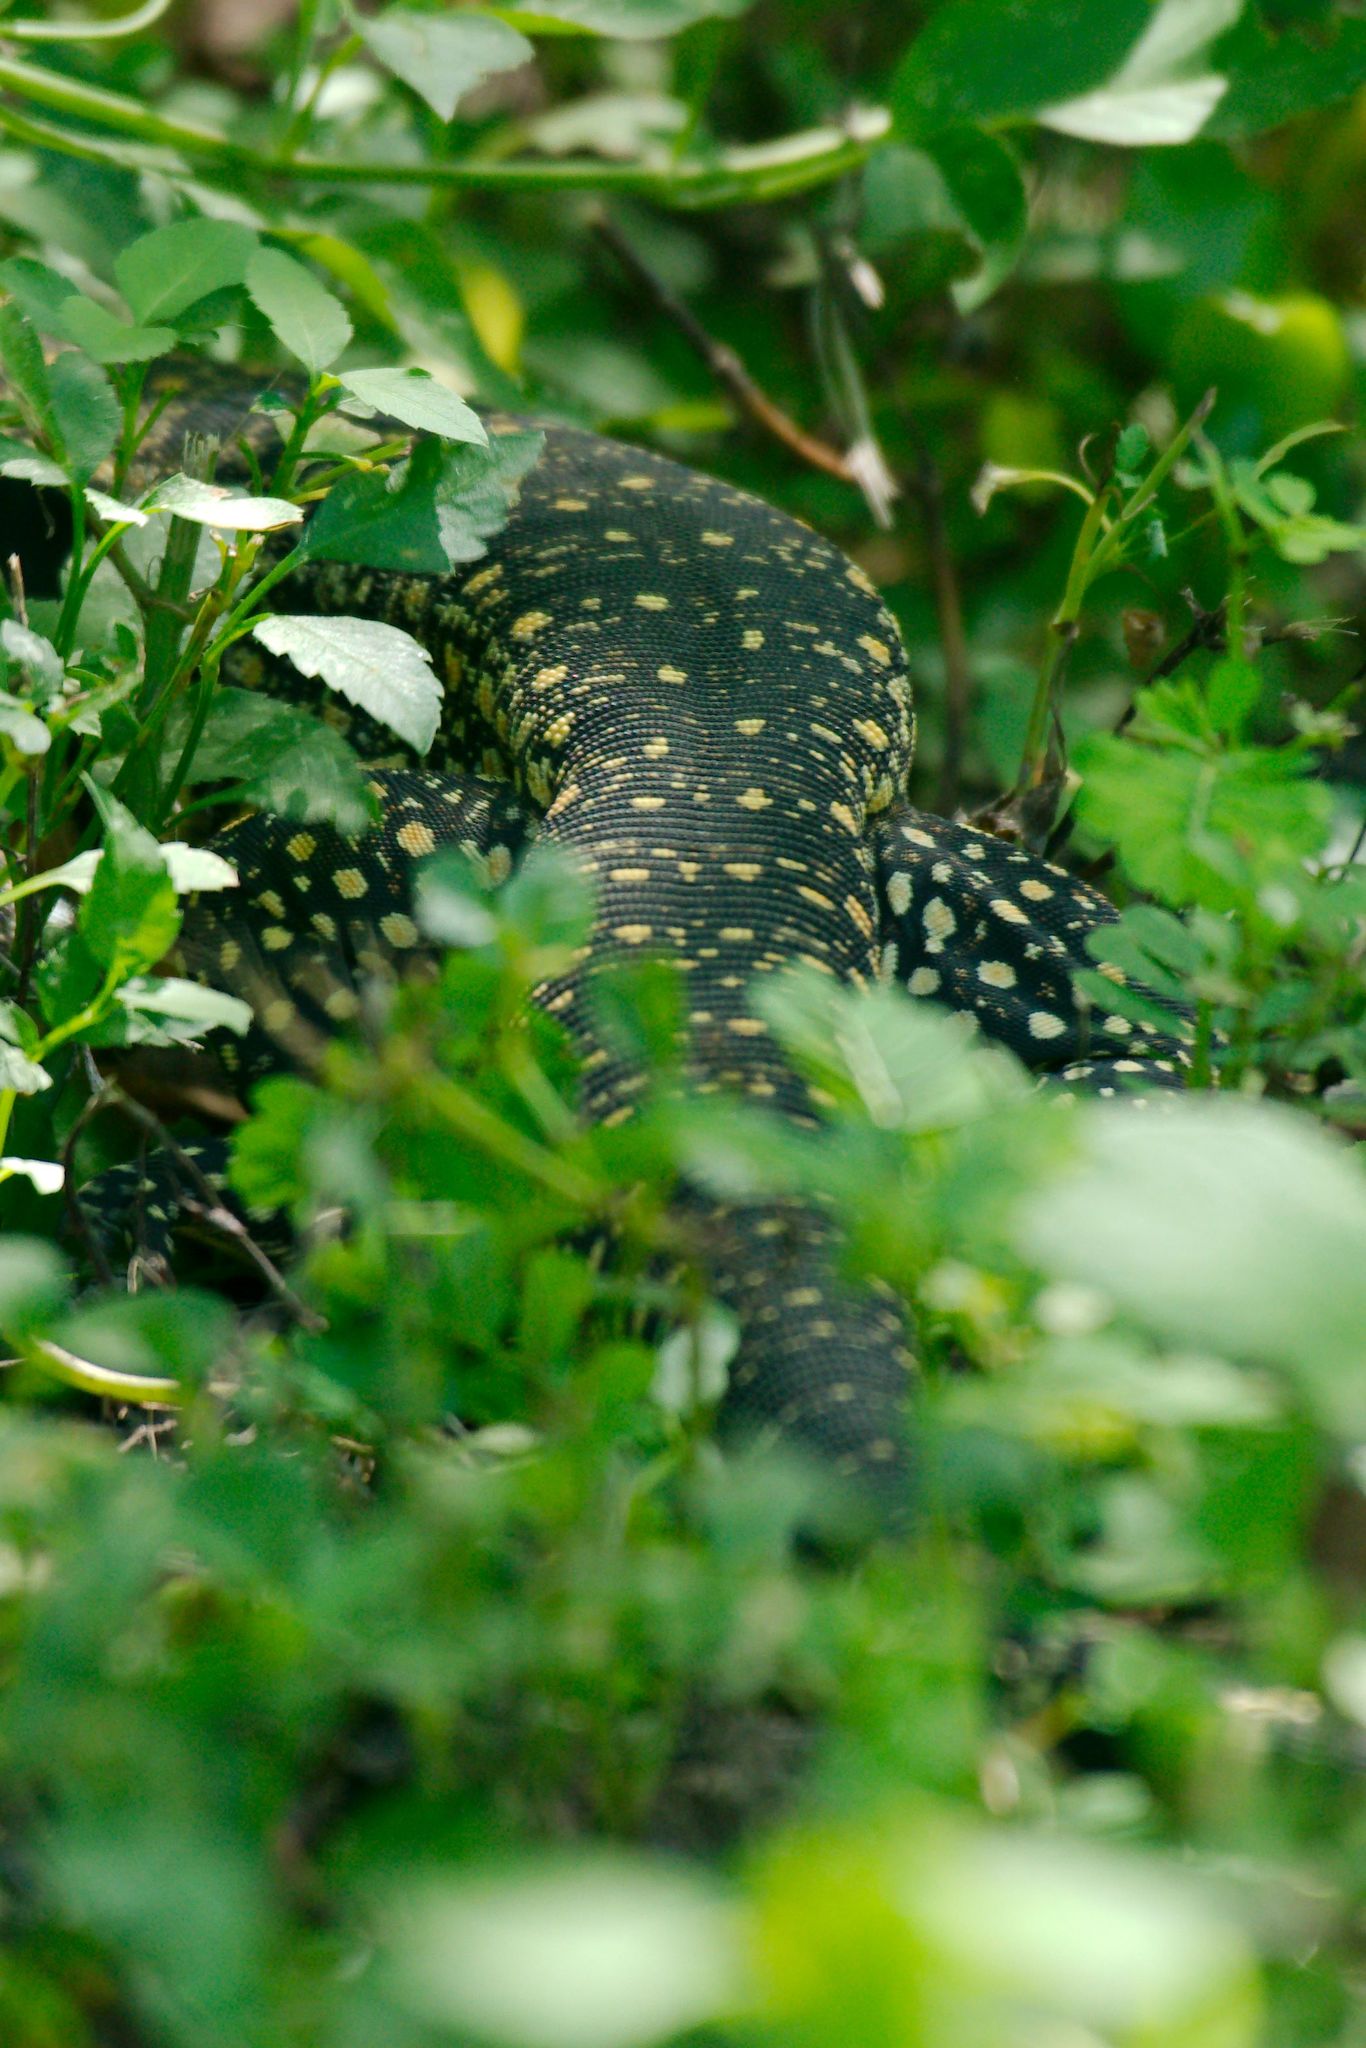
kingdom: Animalia
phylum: Chordata
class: Squamata
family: Teiidae
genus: Salvator
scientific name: Salvator merianae
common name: Argentine black and white tegu
